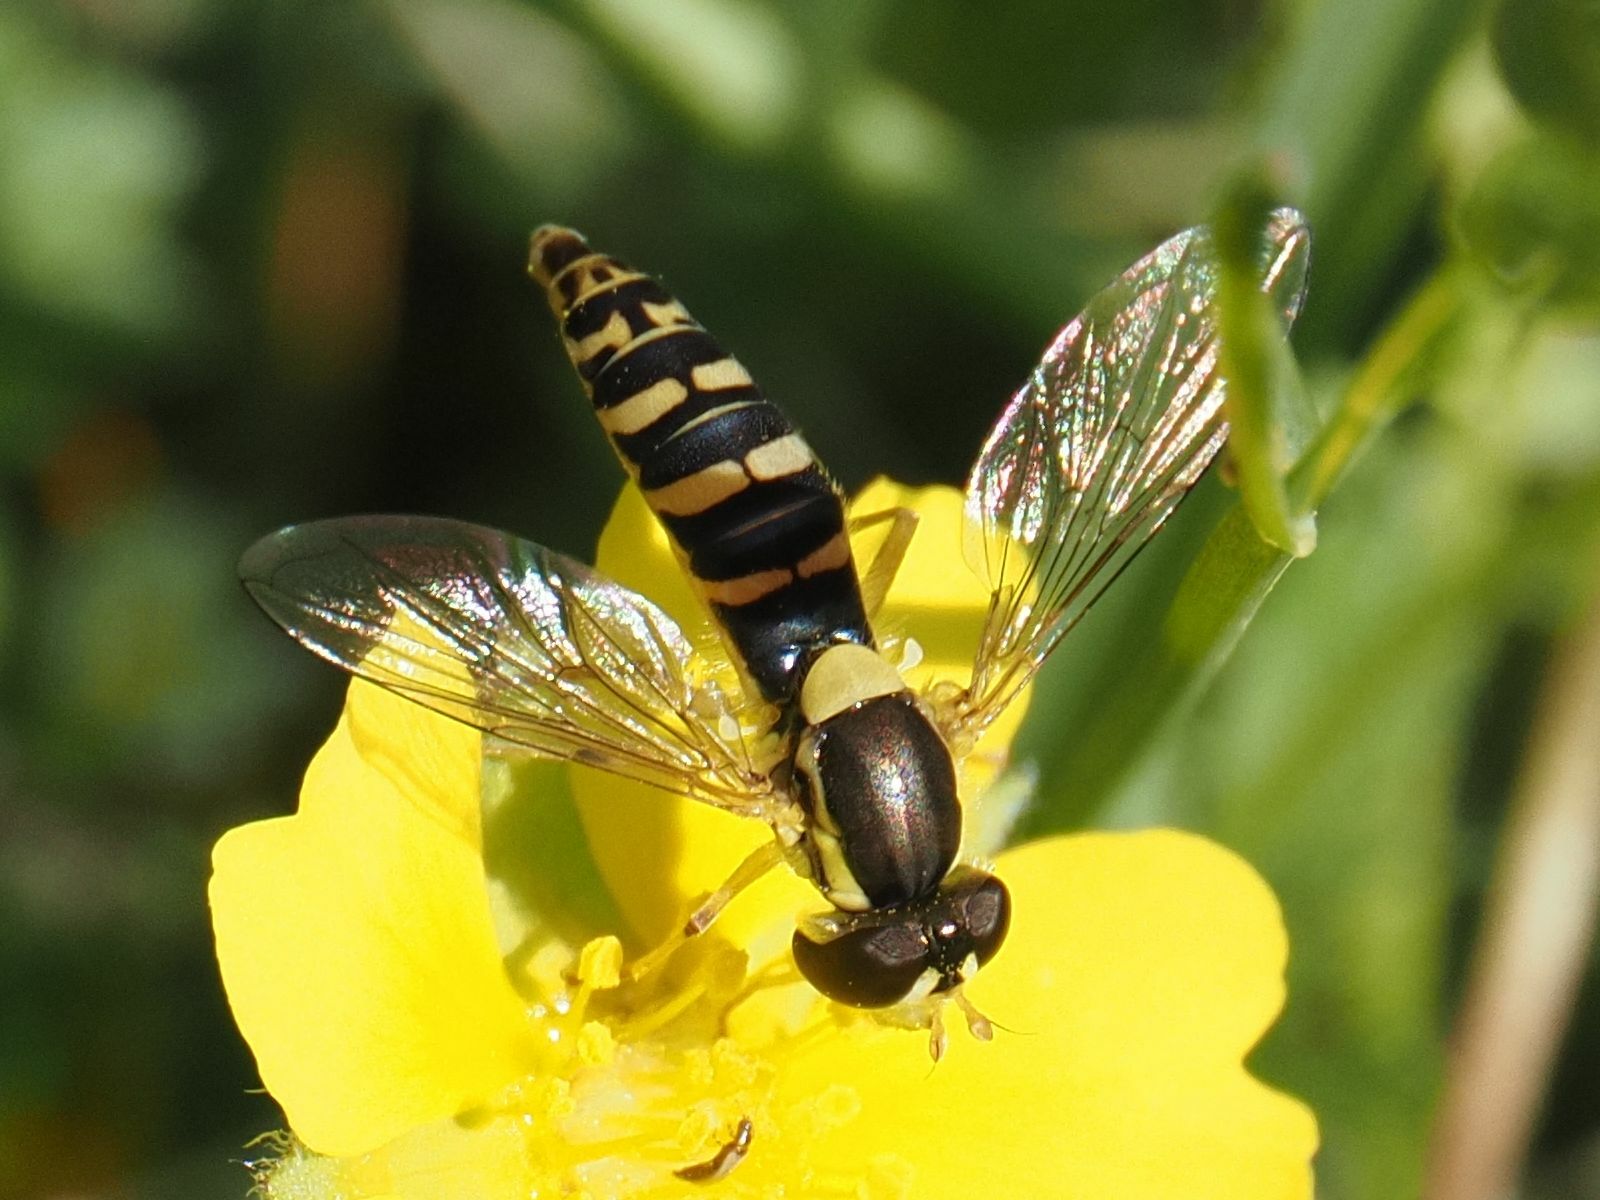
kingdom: Animalia
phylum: Arthropoda
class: Insecta
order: Diptera
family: Syrphidae
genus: Sphaerophoria
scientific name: Sphaerophoria
